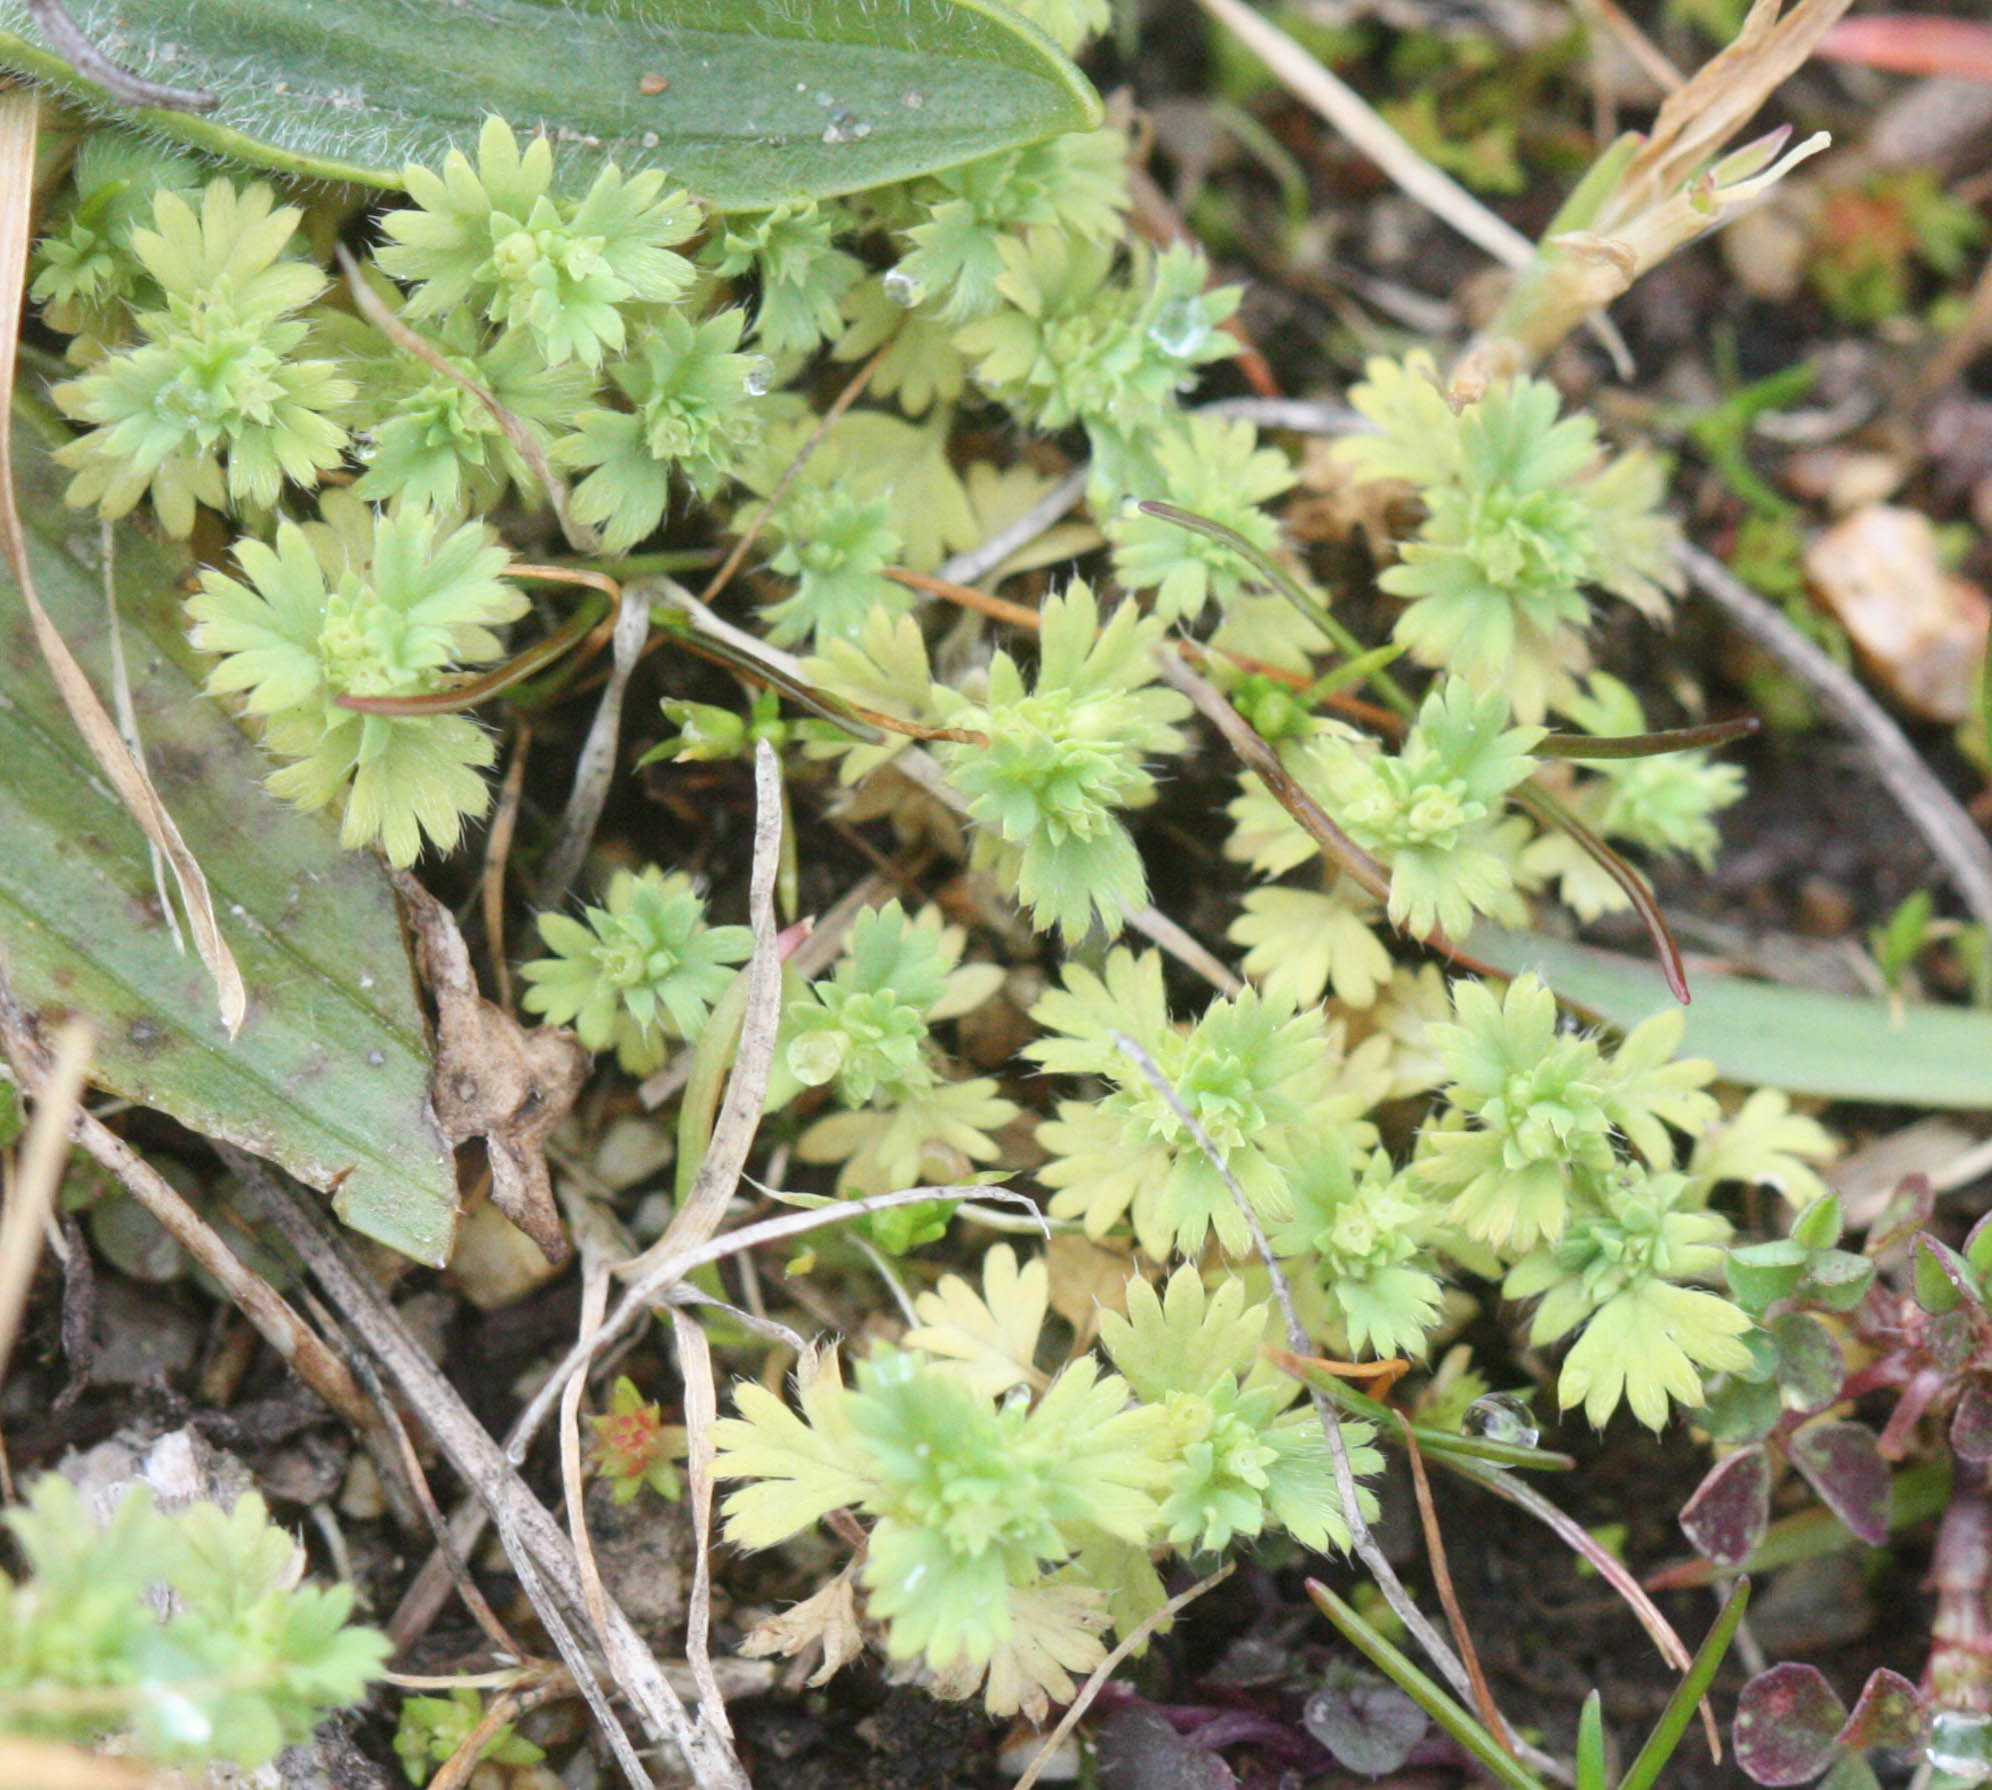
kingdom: Plantae
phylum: Tracheophyta
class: Magnoliopsida
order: Rosales
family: Rosaceae
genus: Aphanes
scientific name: Aphanes arvensis
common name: Parsley-piert
